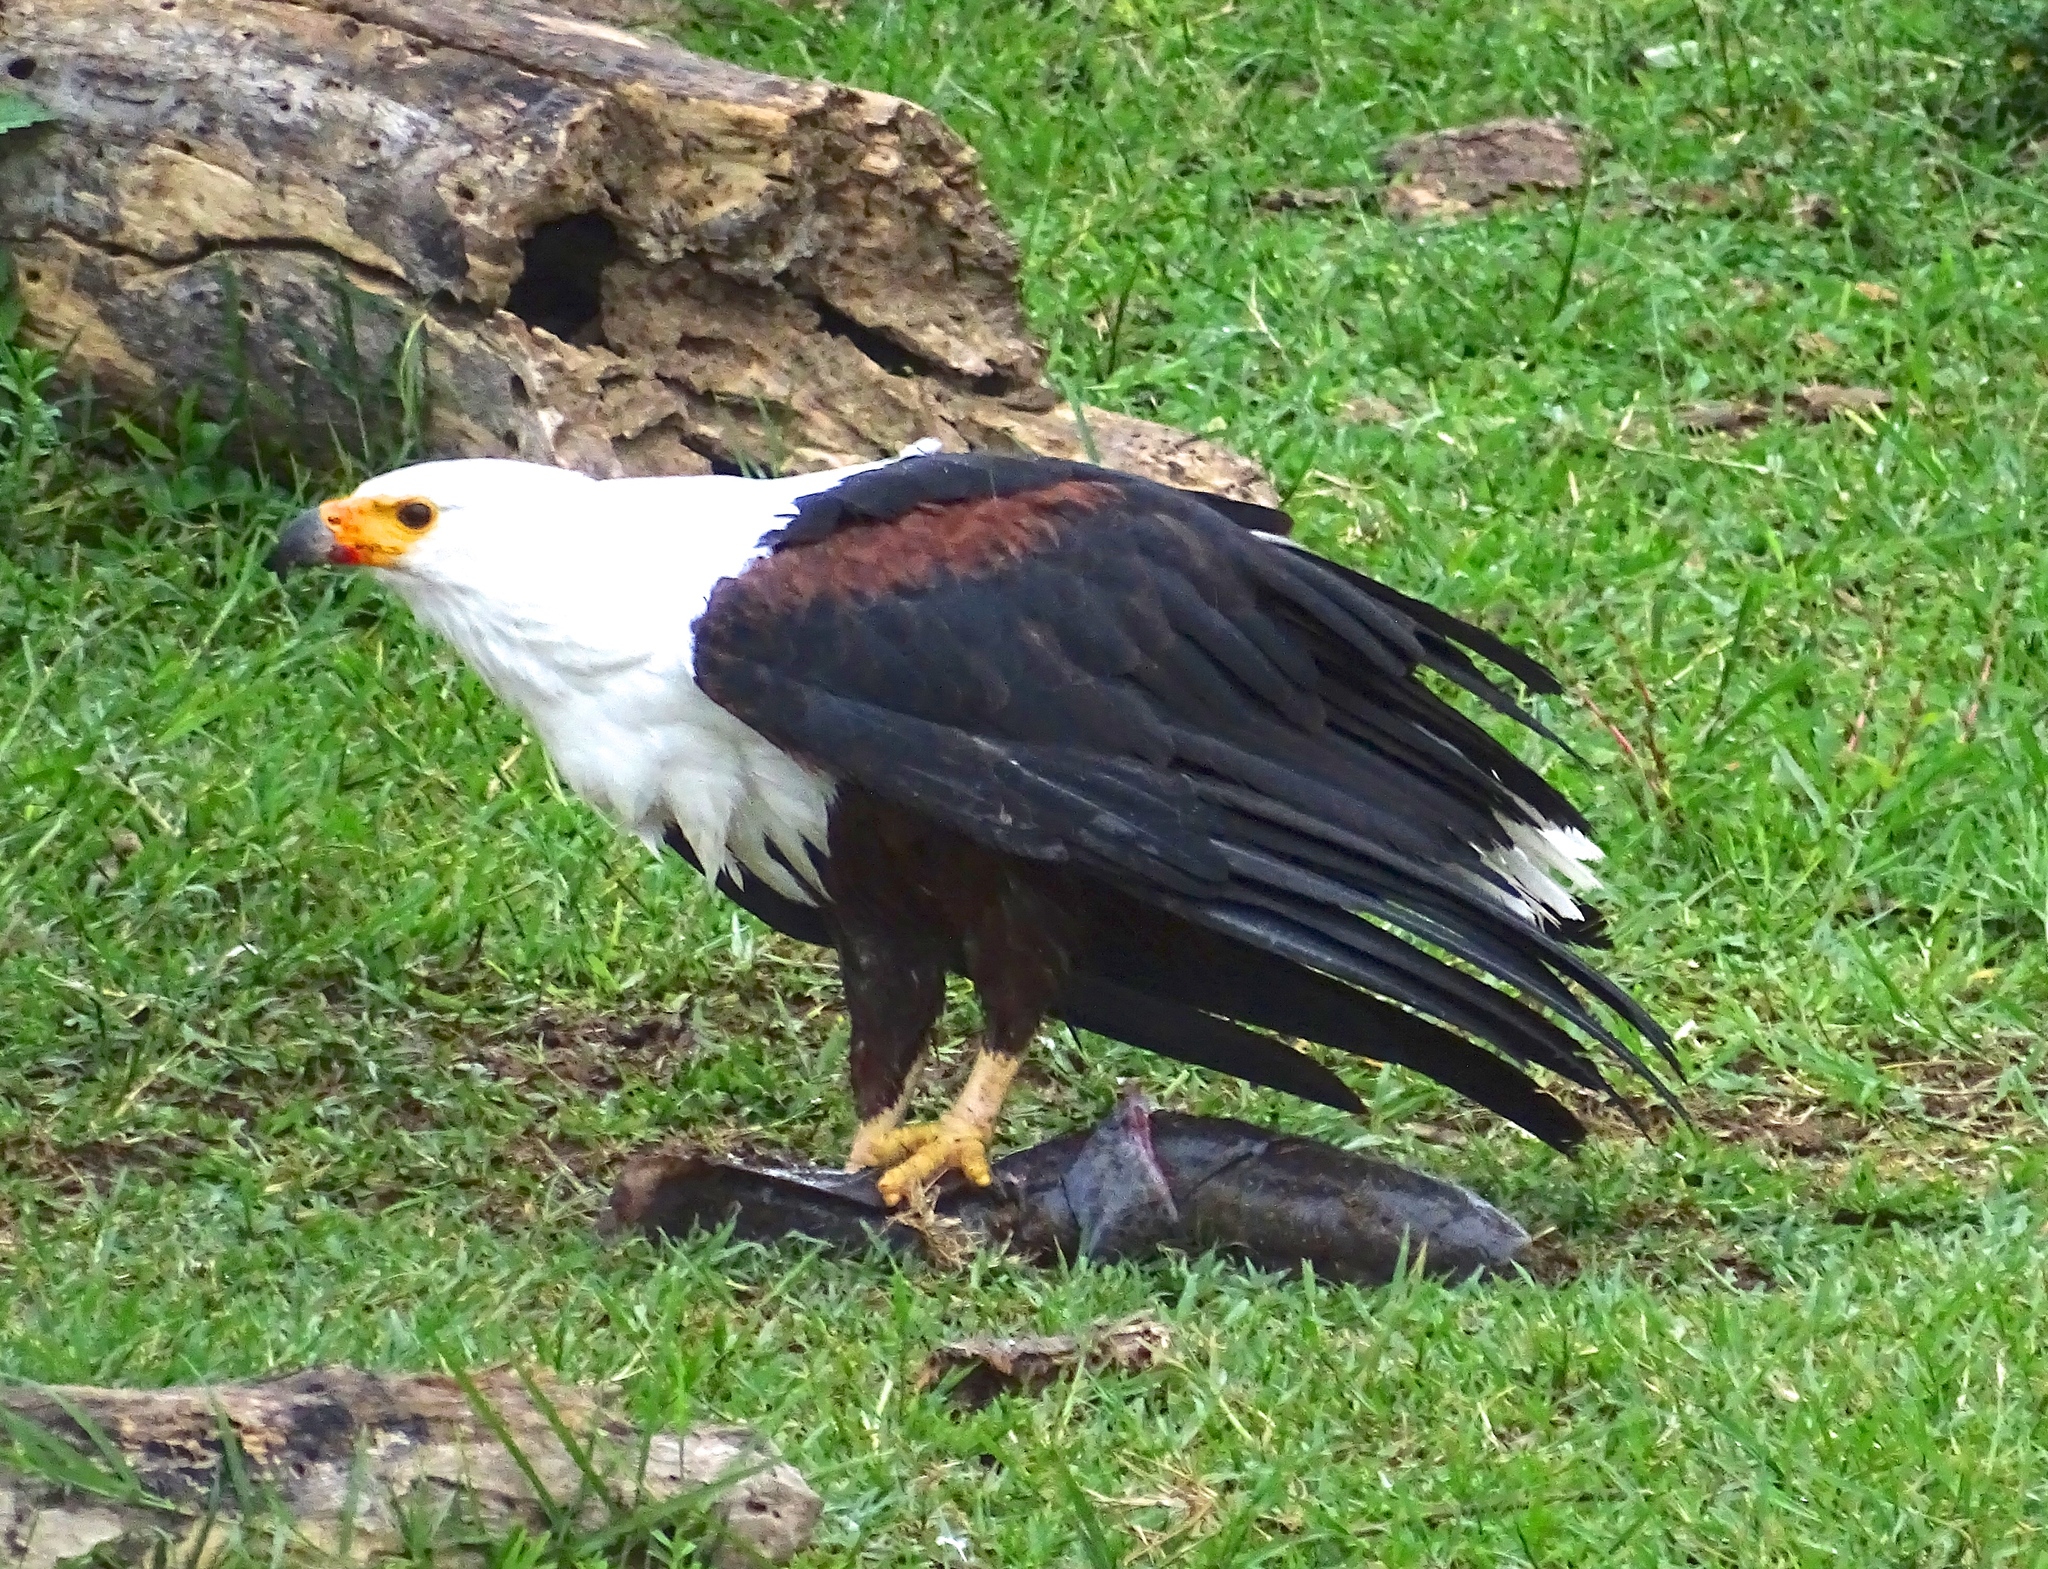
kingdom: Animalia
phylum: Chordata
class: Aves
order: Accipitriformes
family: Accipitridae
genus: Haliaeetus
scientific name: Haliaeetus vocifer
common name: African fish eagle
